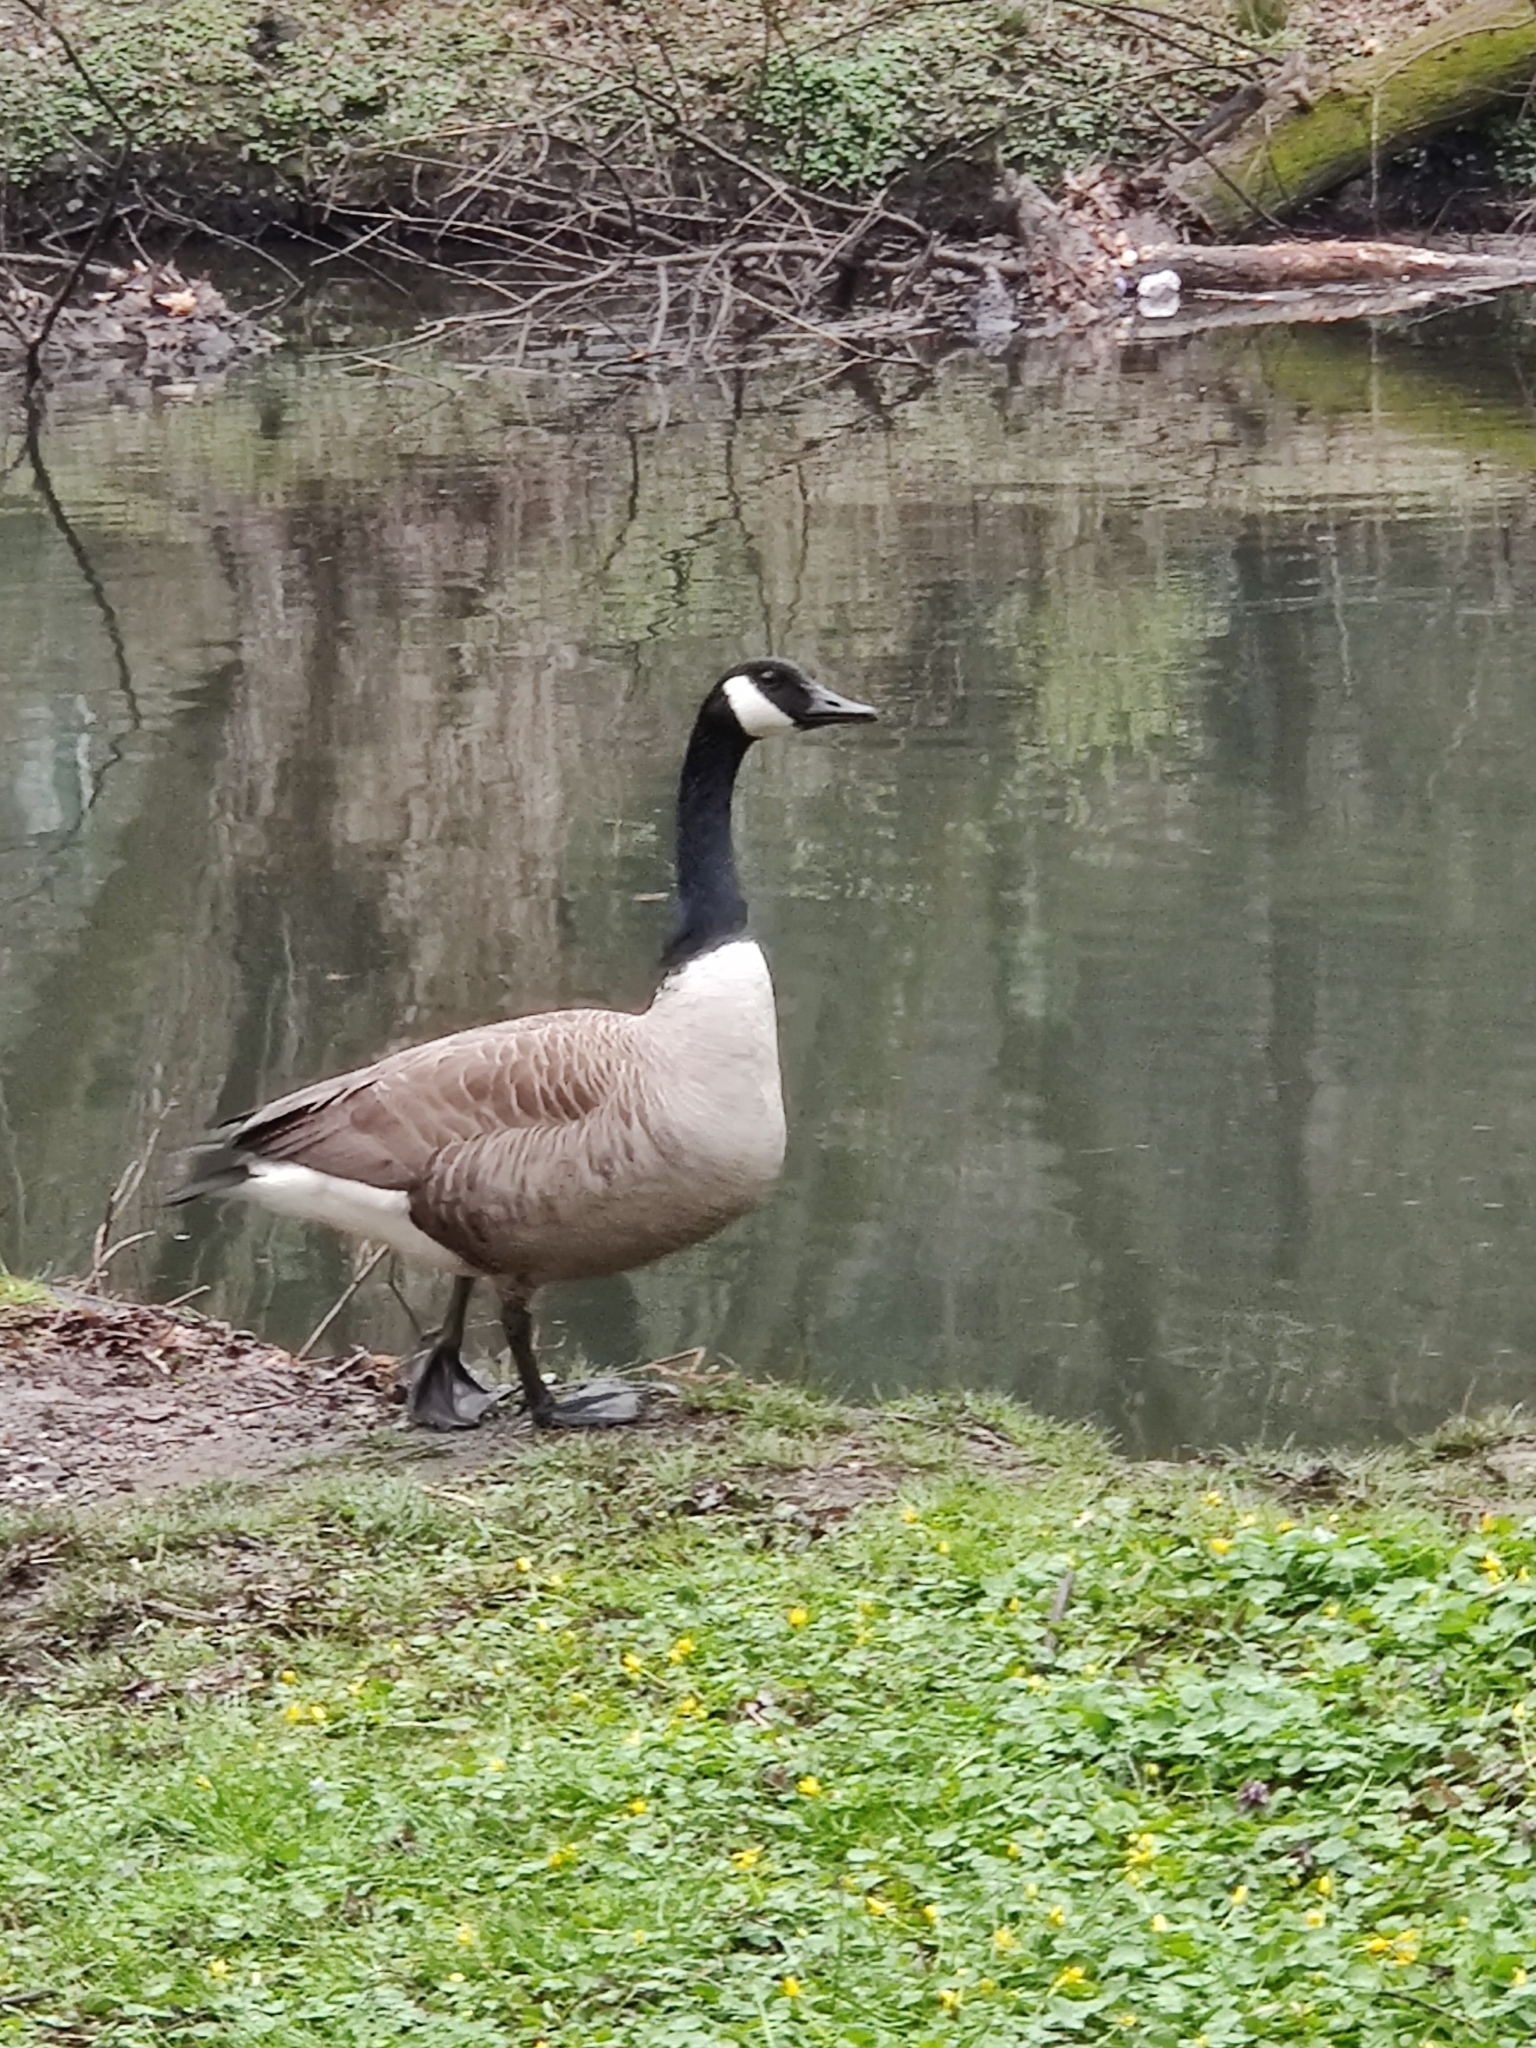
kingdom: Animalia
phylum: Chordata
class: Aves
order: Anseriformes
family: Anatidae
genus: Branta
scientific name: Branta canadensis
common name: Canada goose
